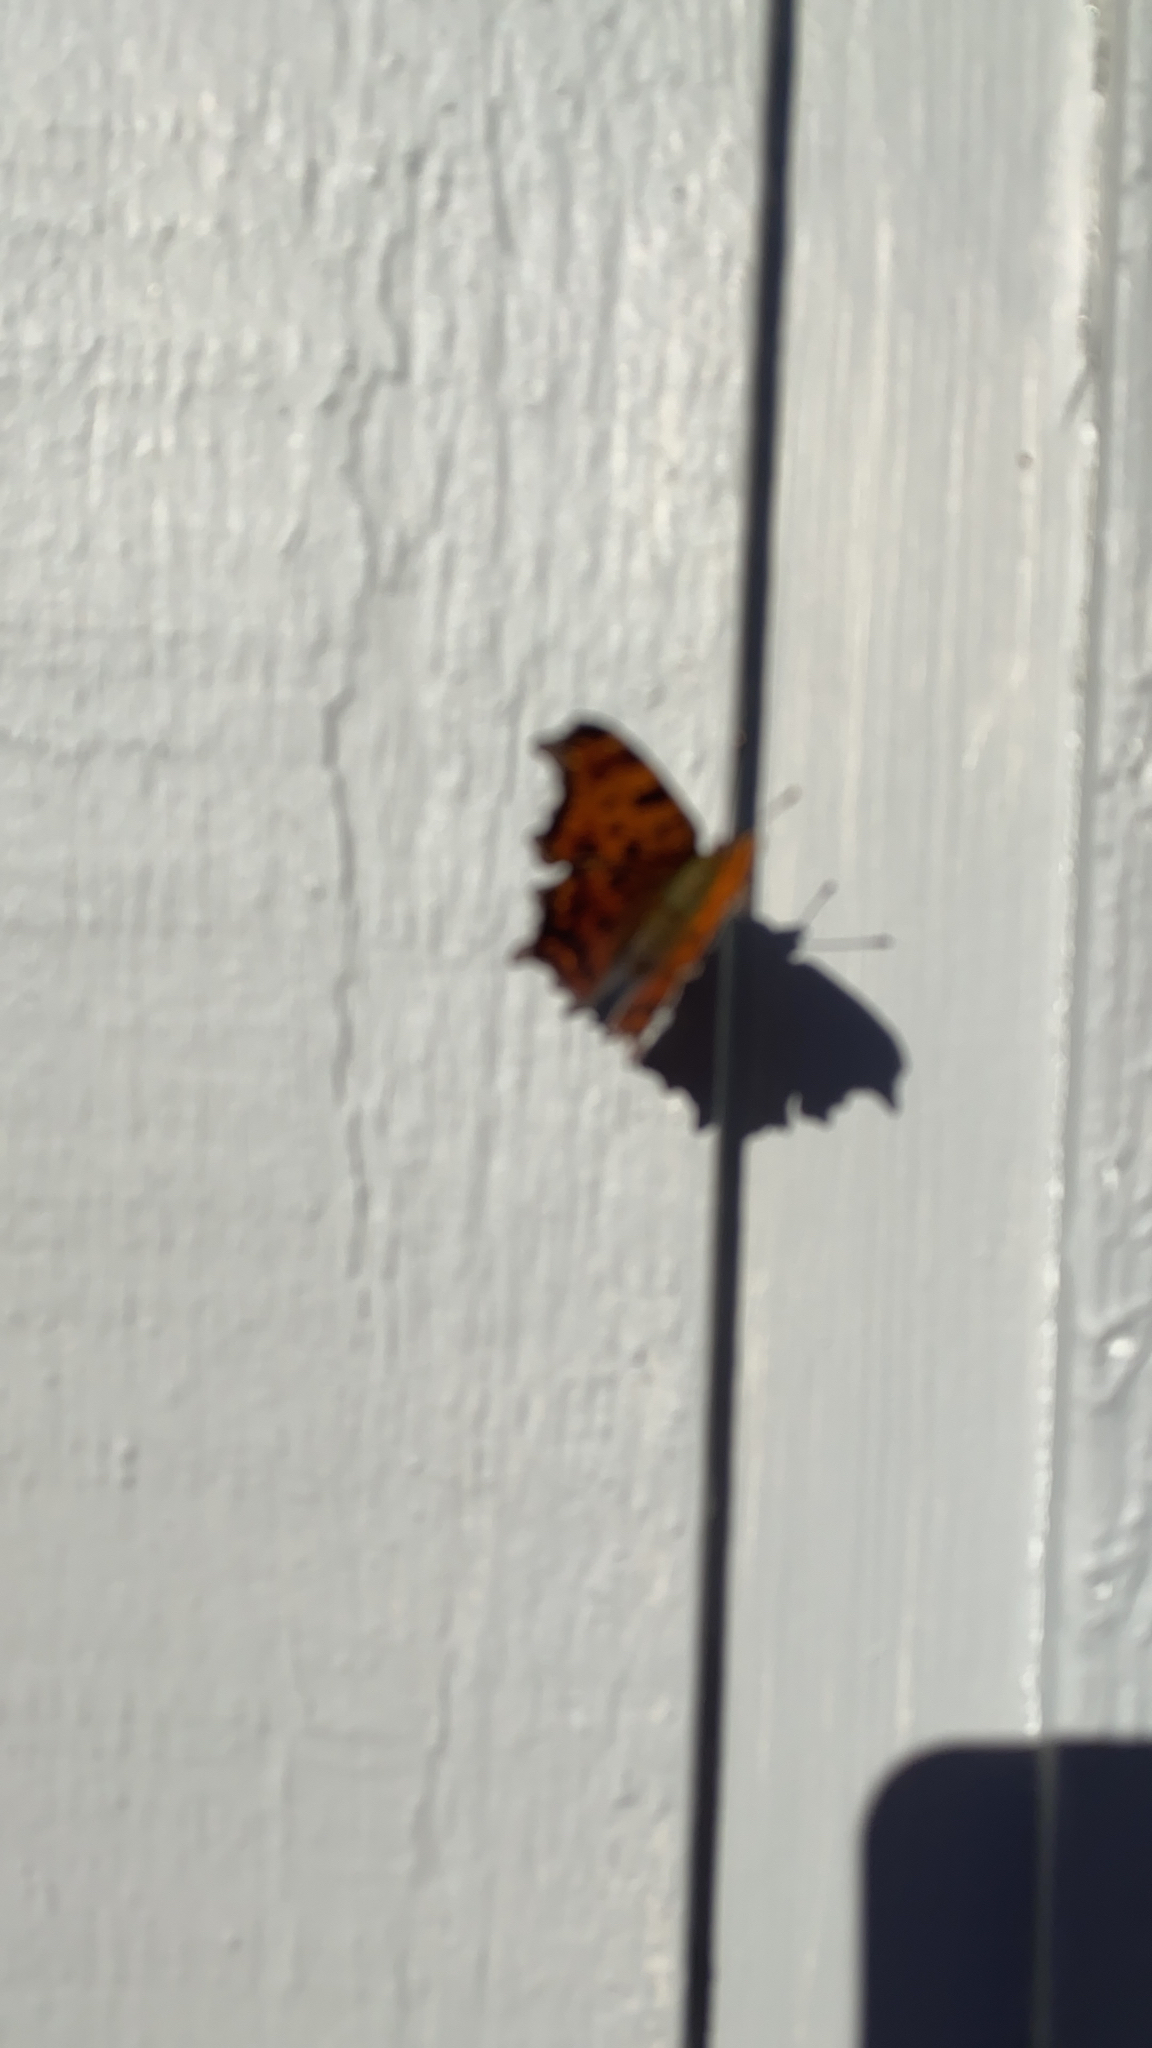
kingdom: Animalia
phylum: Arthropoda
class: Insecta
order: Lepidoptera
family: Nymphalidae
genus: Polygonia
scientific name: Polygonia comma
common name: Eastern comma
